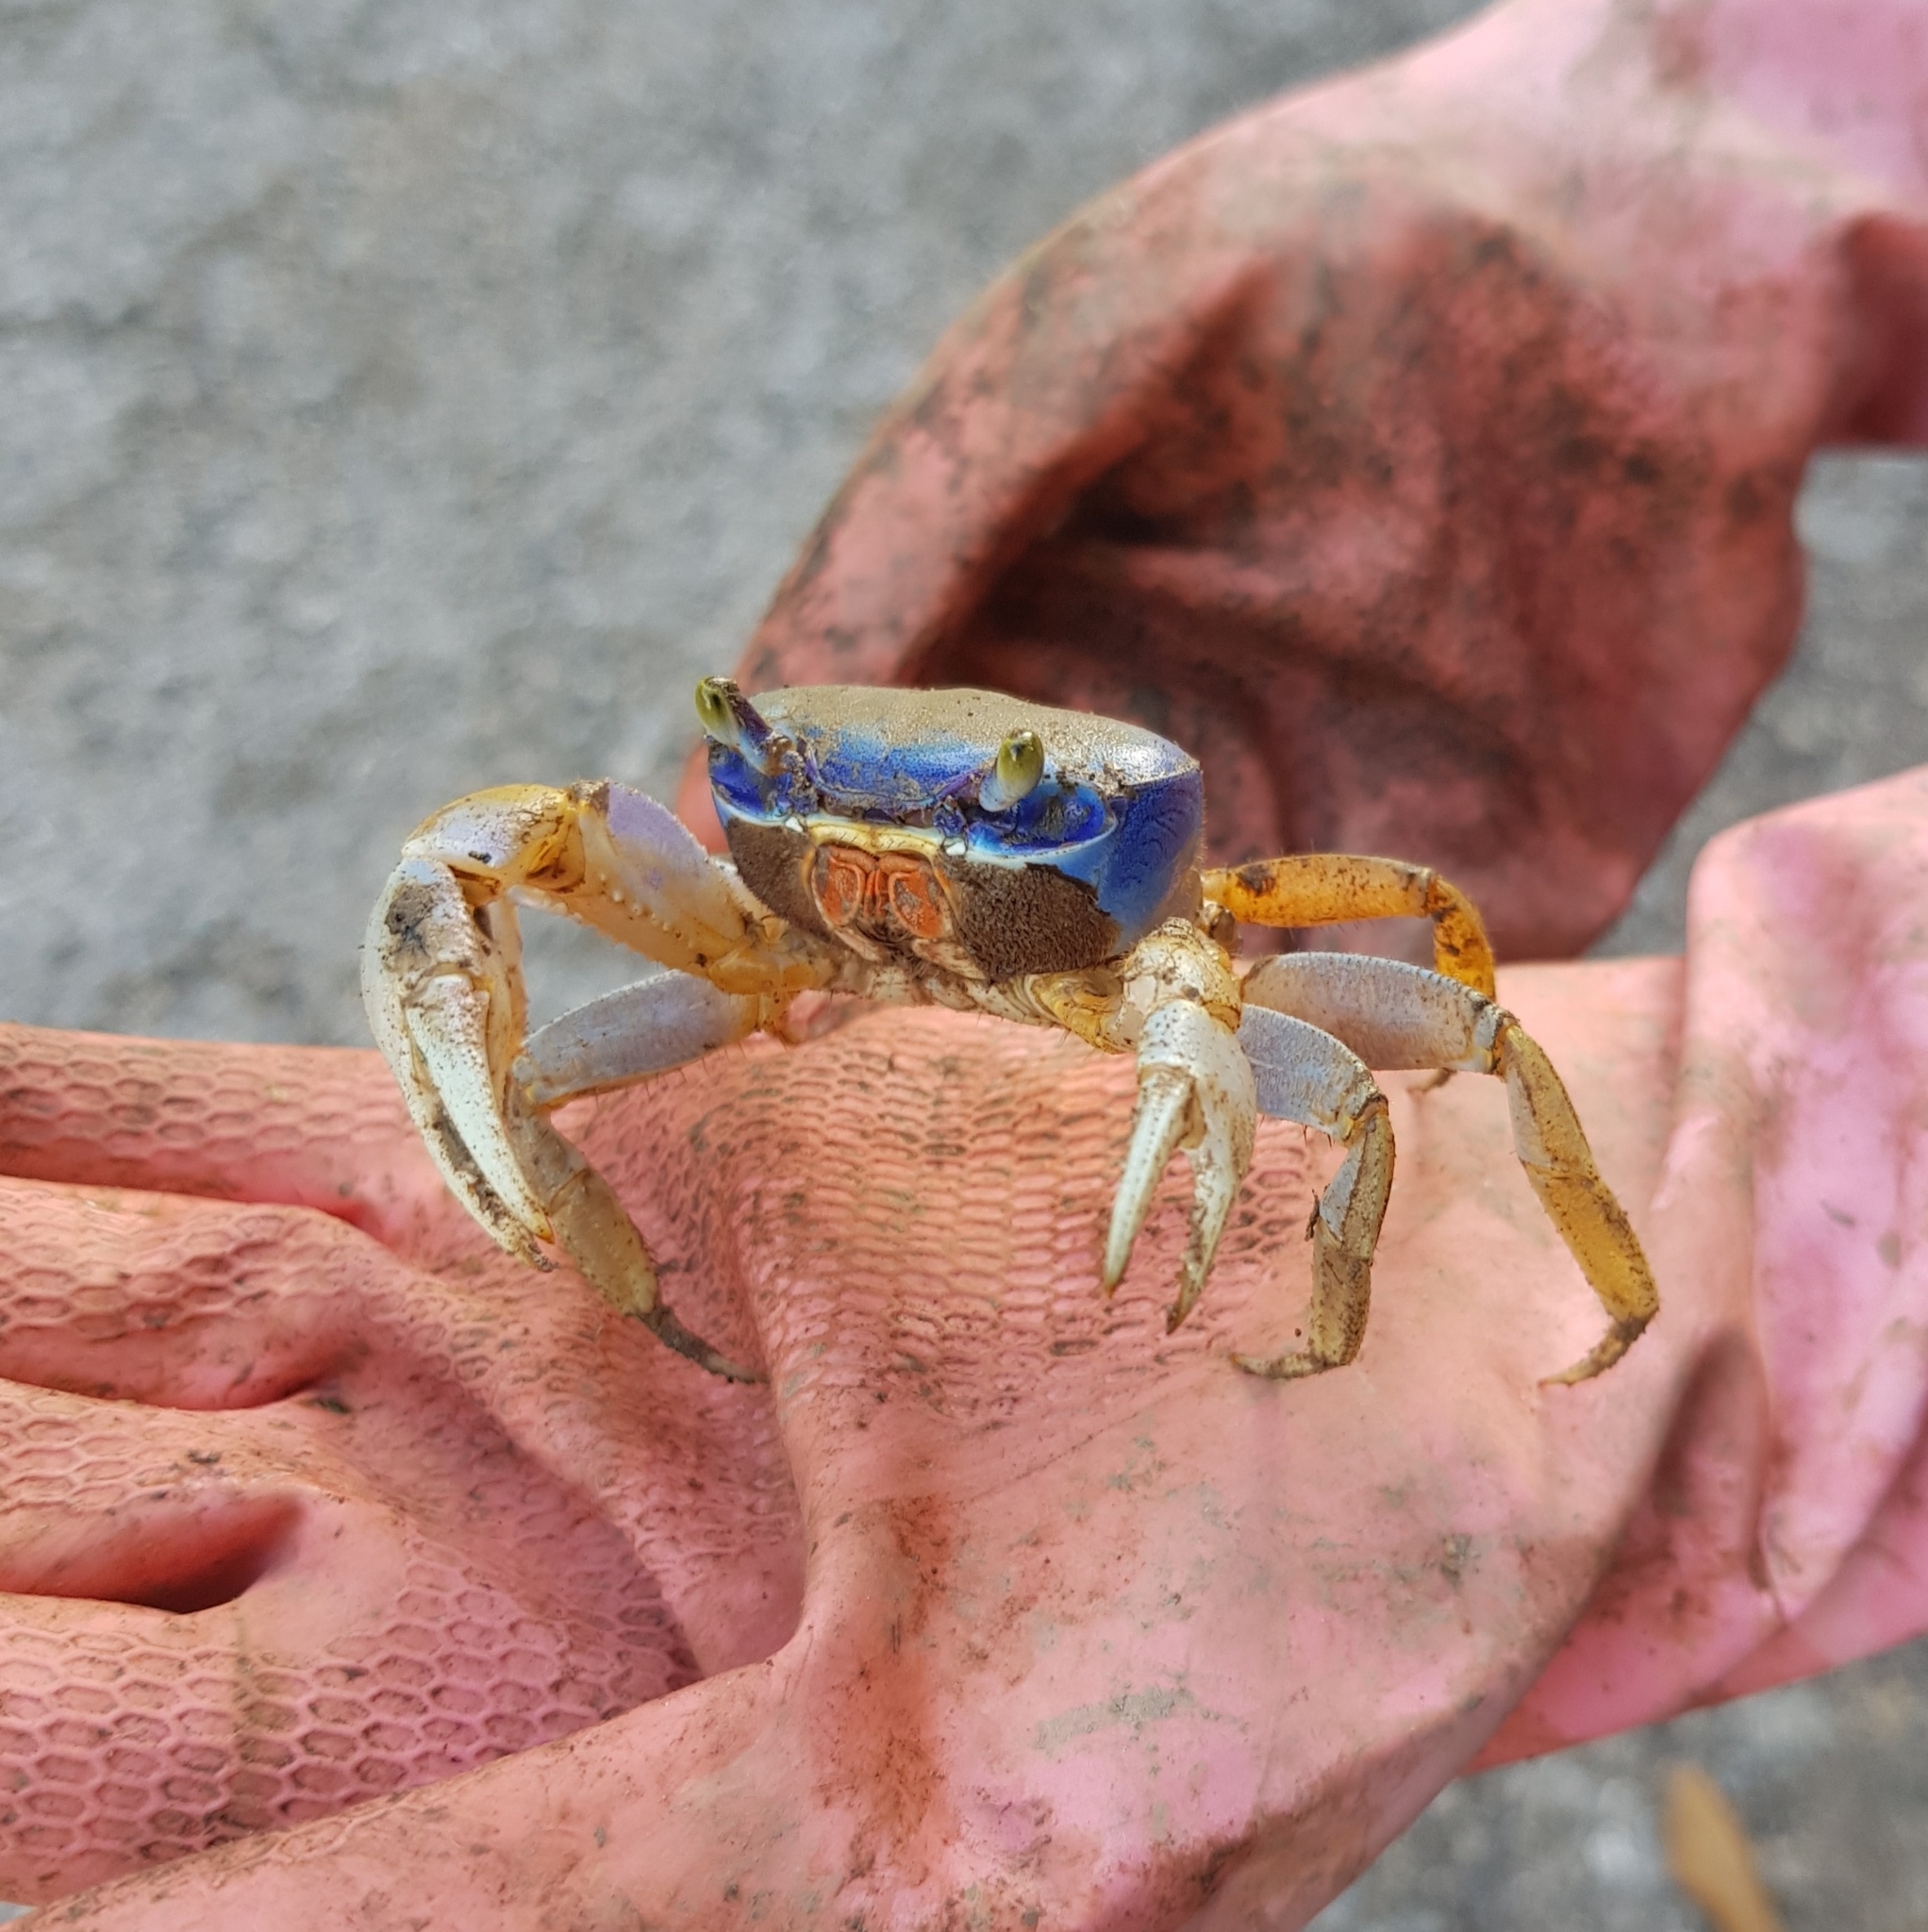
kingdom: Animalia
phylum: Arthropoda
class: Malacostraca
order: Decapoda
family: Gecarcinidae
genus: Cardisoma
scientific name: Cardisoma guanhumi
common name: Great land crab
